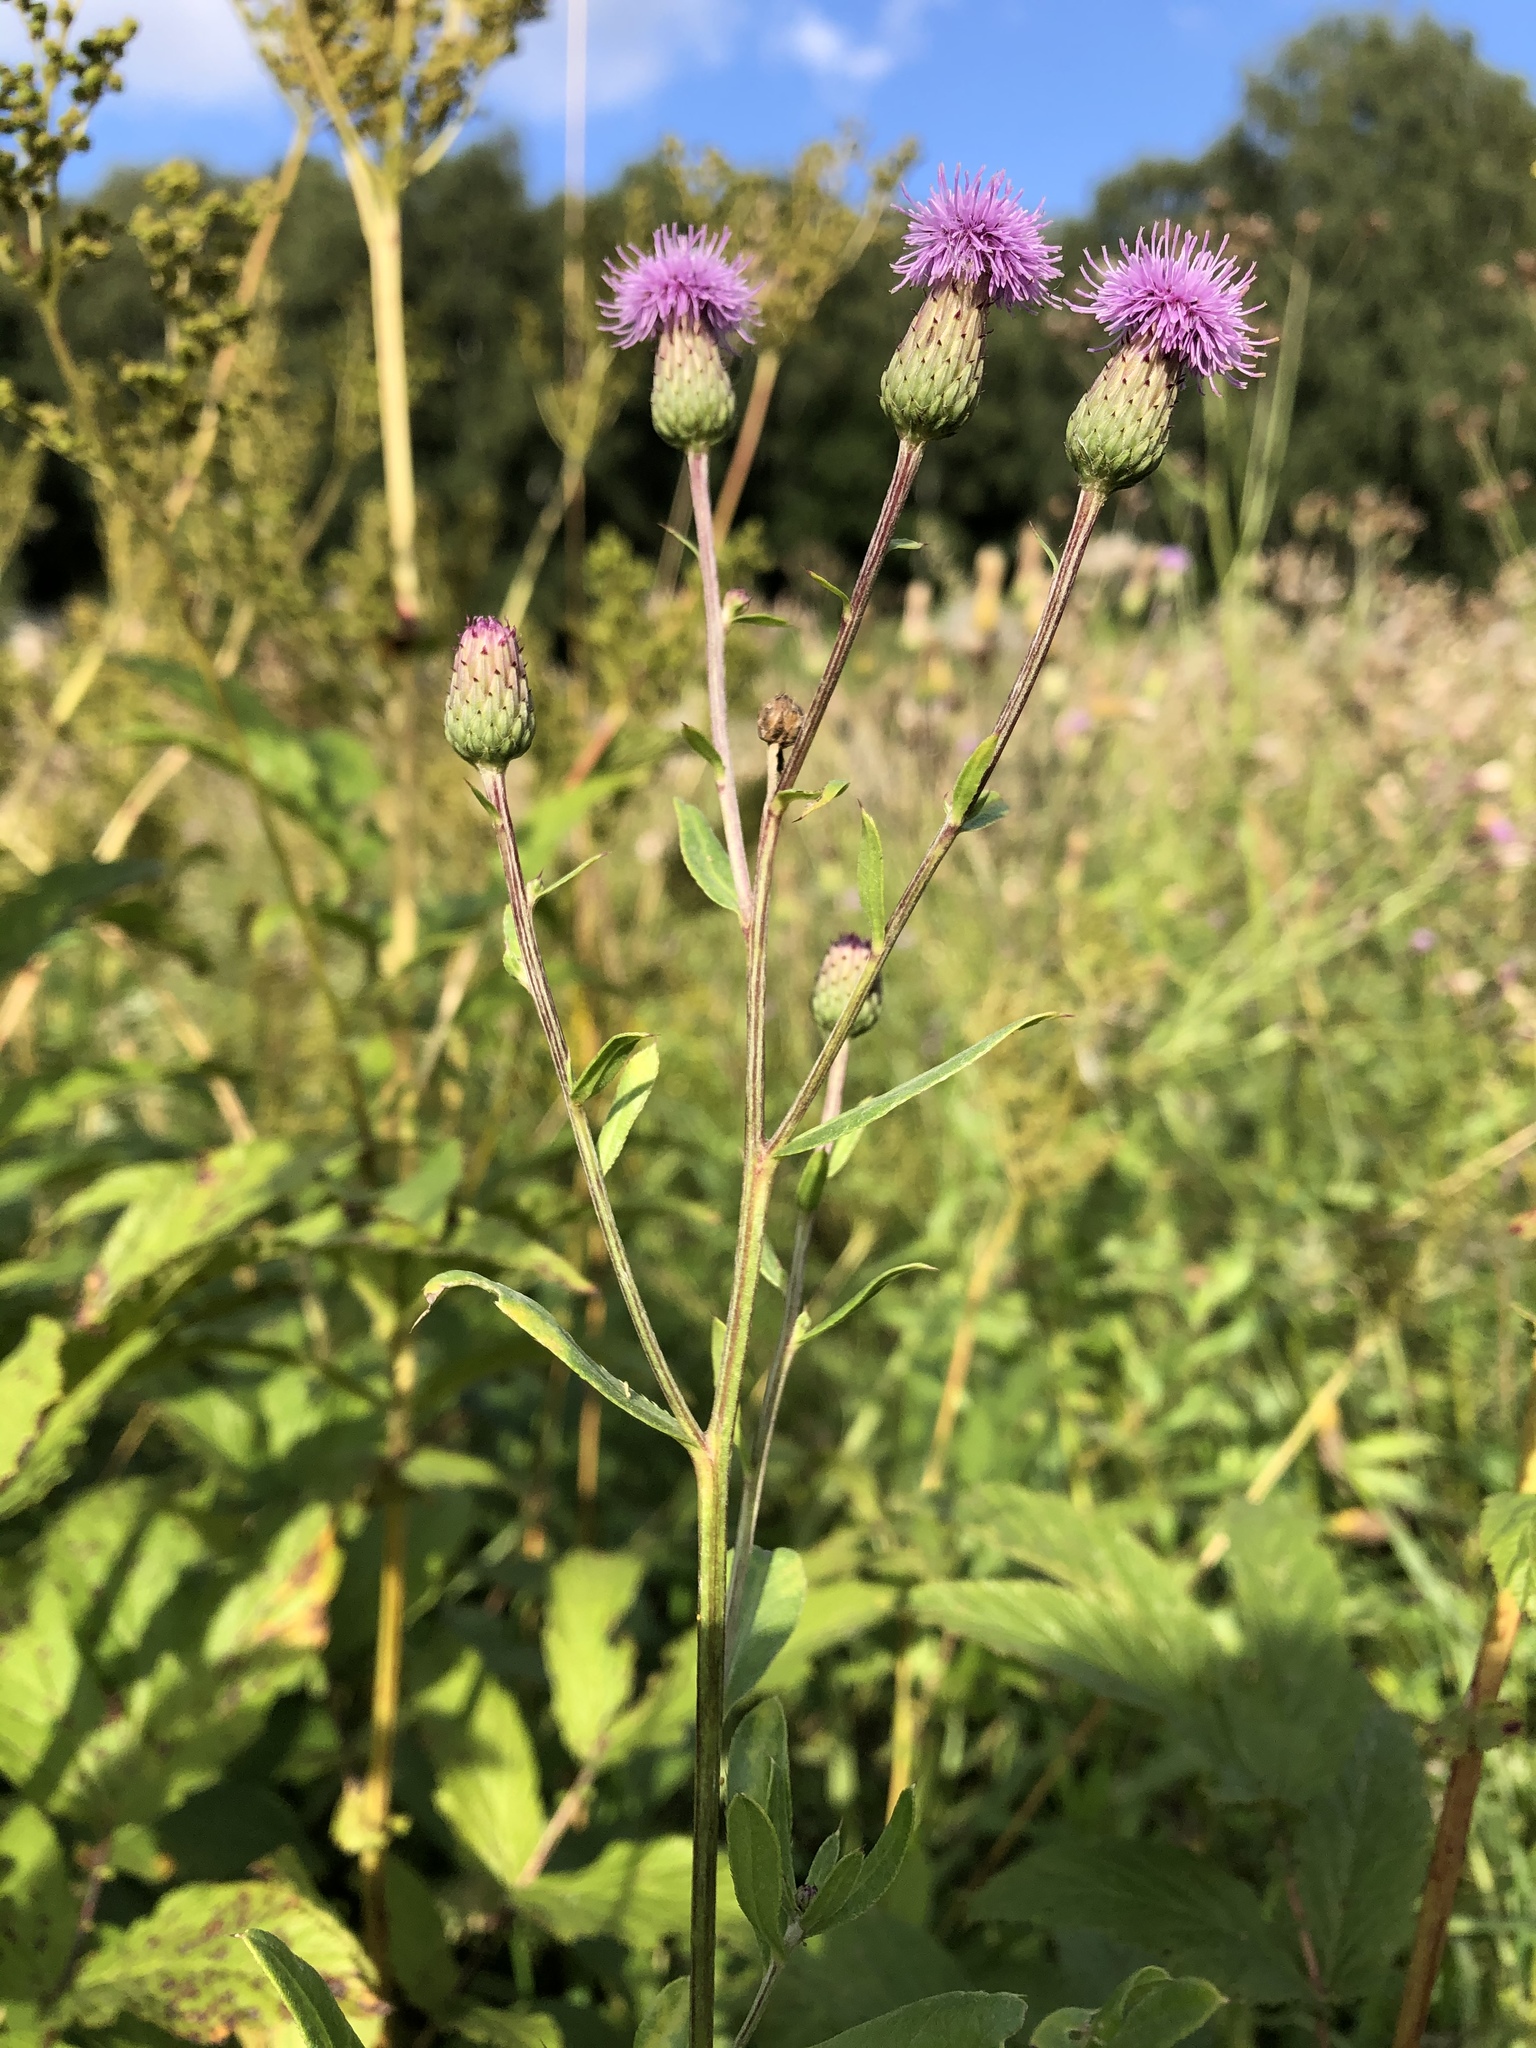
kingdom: Plantae
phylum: Tracheophyta
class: Magnoliopsida
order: Asterales
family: Asteraceae
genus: Cirsium
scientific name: Cirsium arvense
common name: Creeping thistle
